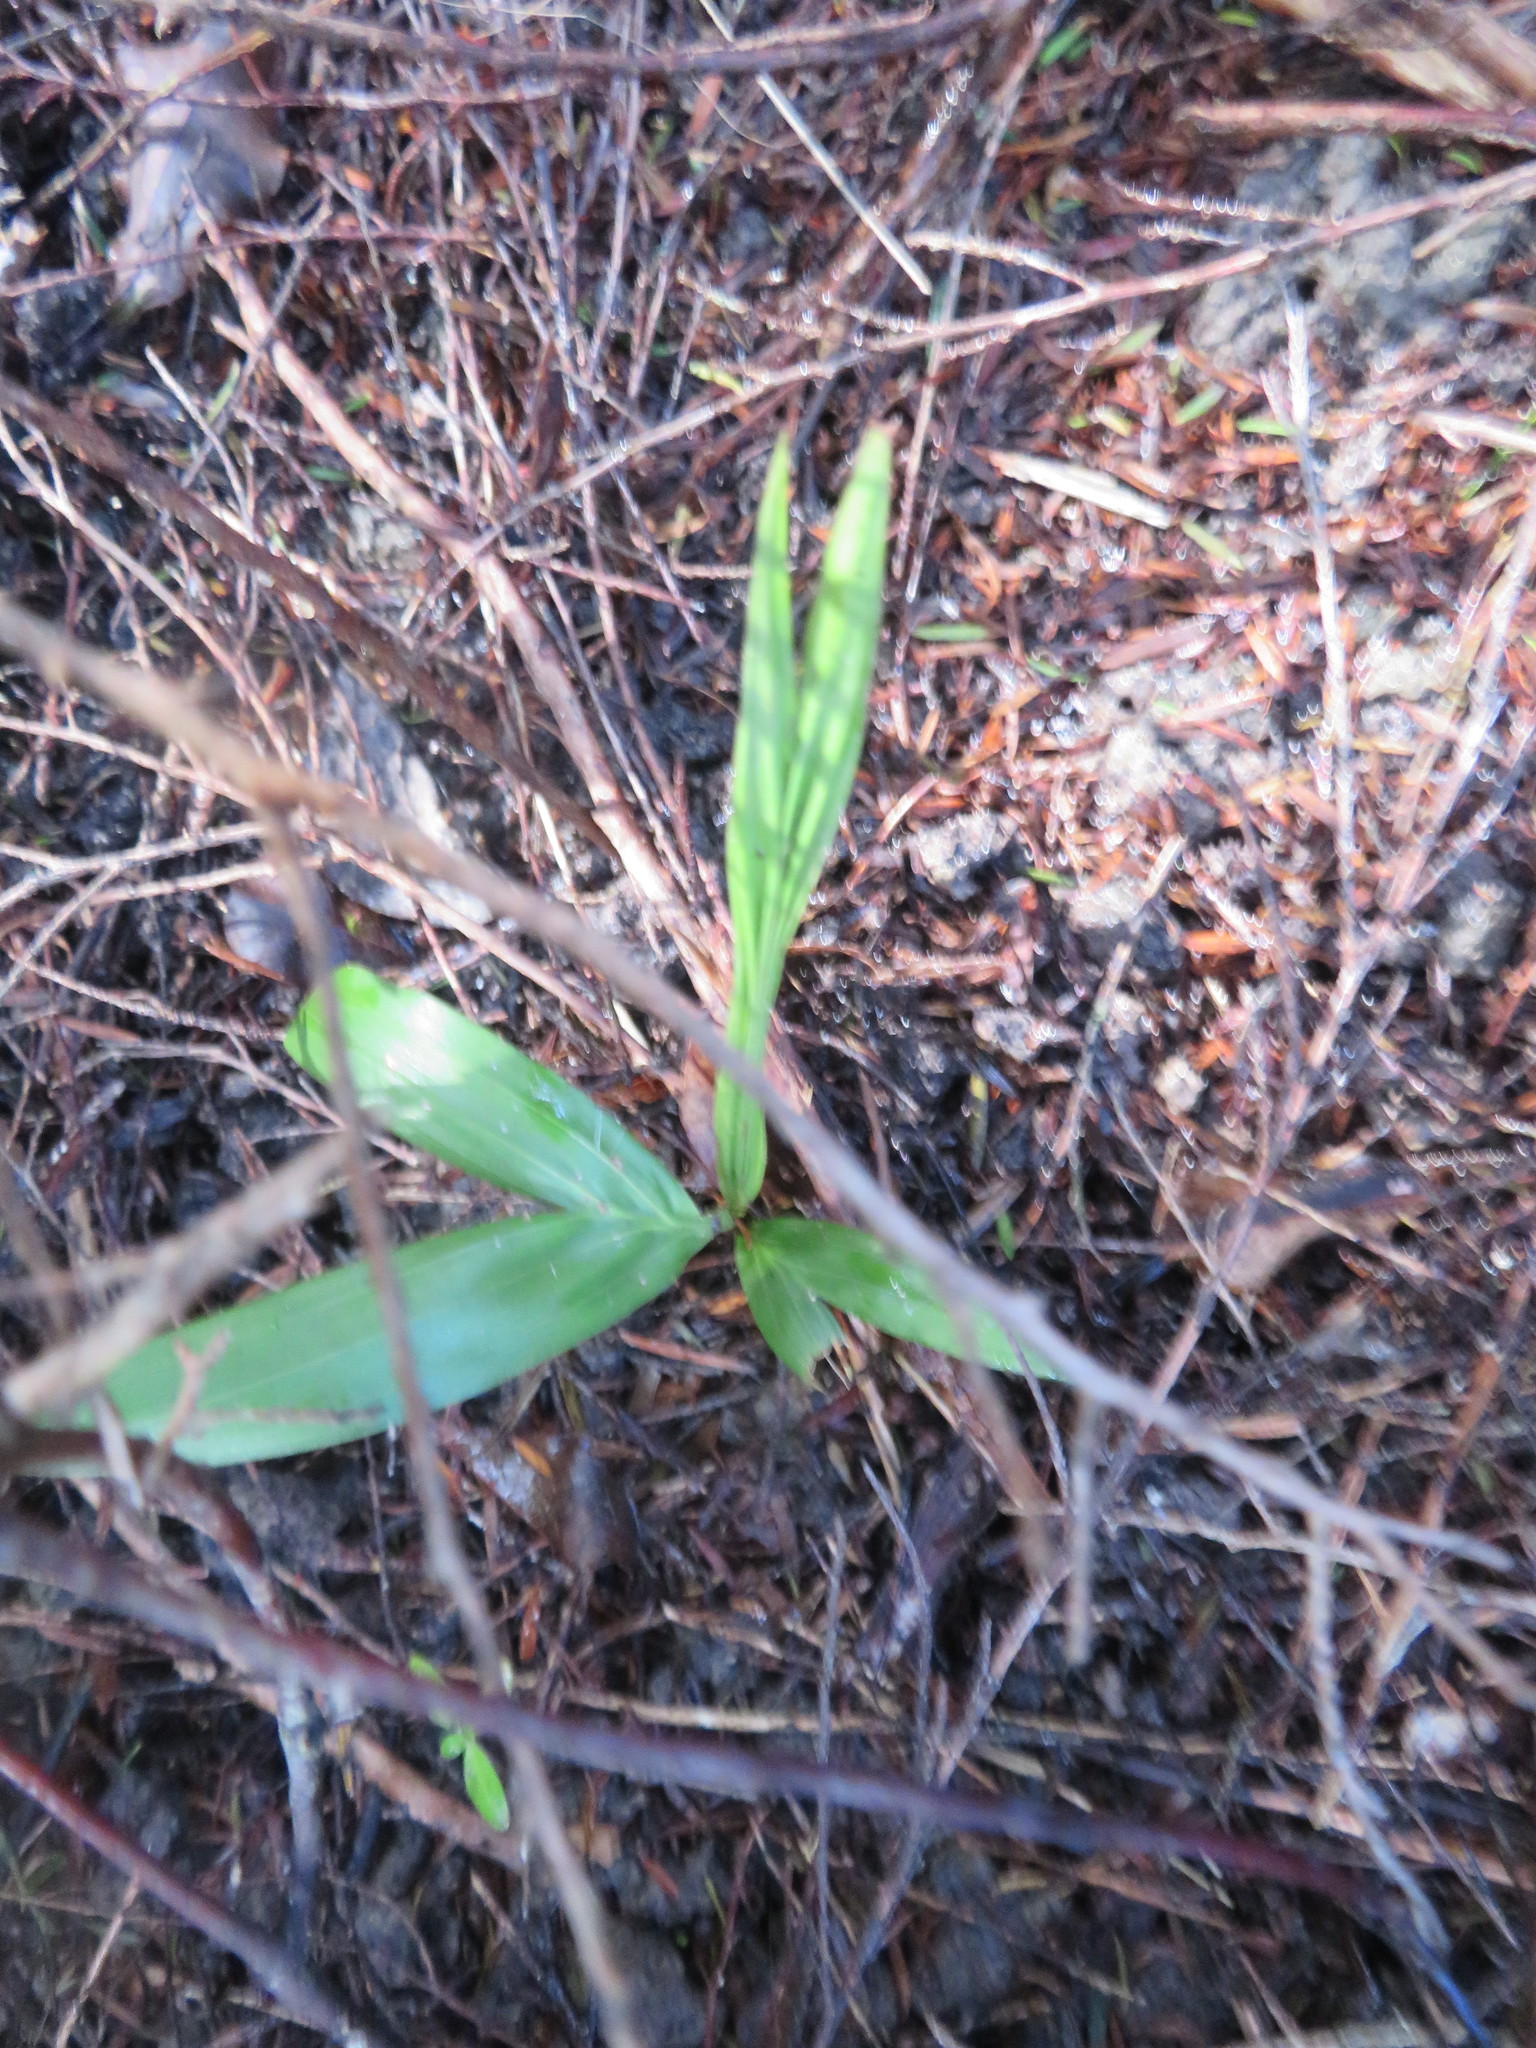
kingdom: Plantae
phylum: Tracheophyta
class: Liliopsida
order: Arecales
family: Arecaceae
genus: Archontophoenix
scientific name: Archontophoenix cunninghamiana
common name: Piccabeen bangalow palm
